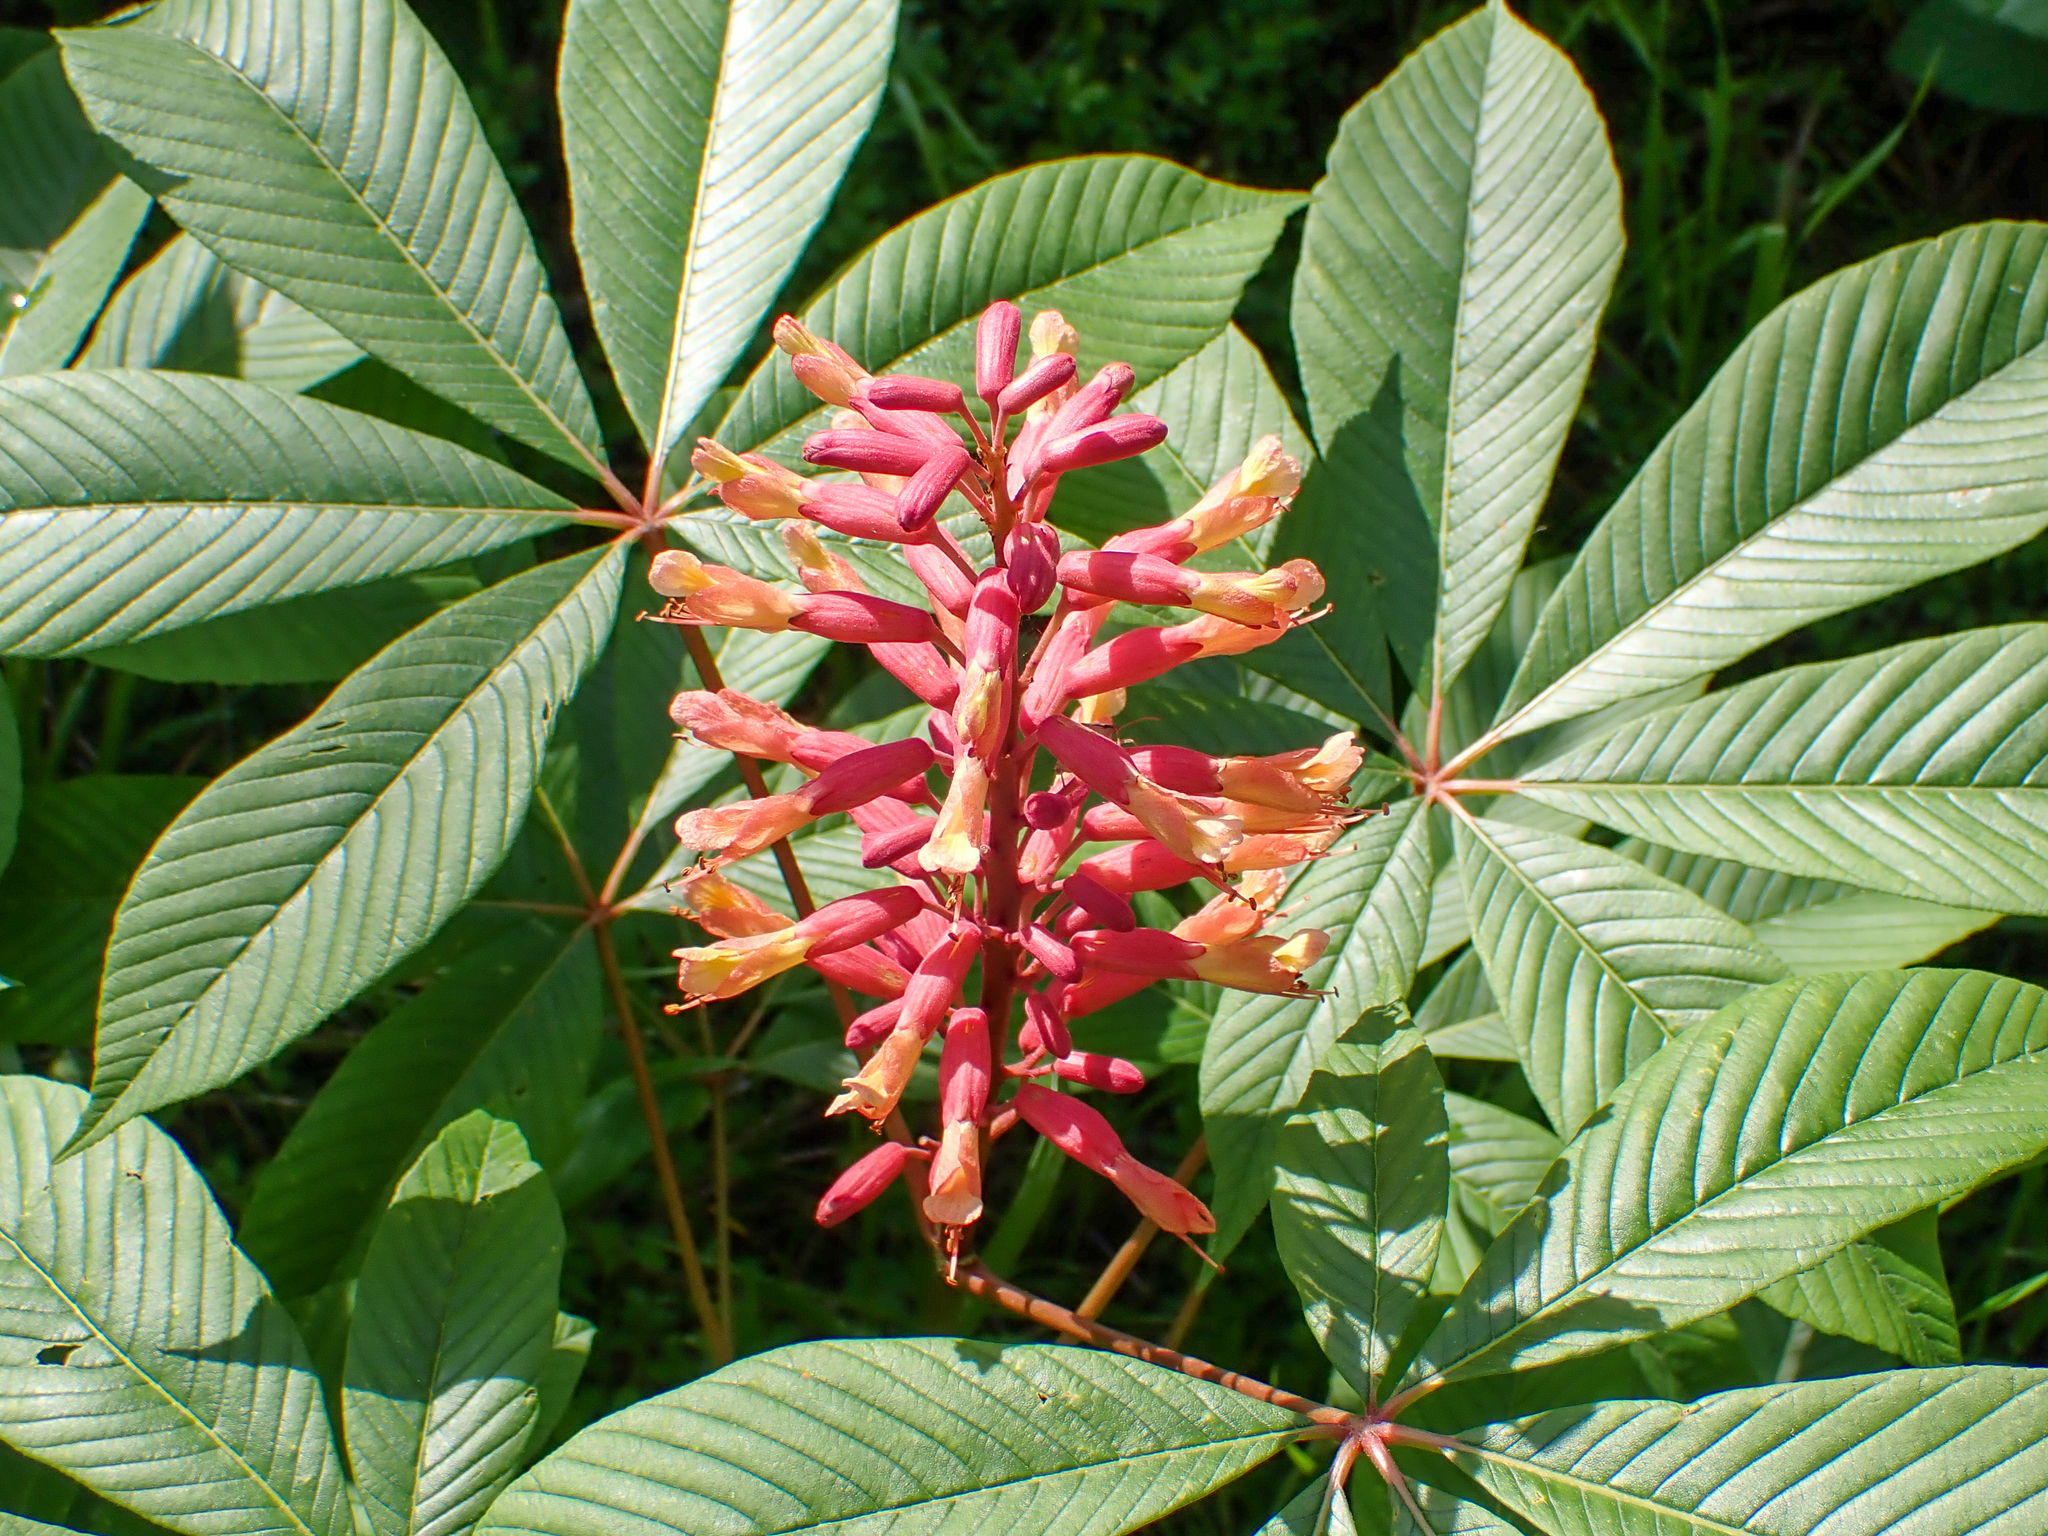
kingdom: Plantae
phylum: Tracheophyta
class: Magnoliopsida
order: Sapindales
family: Sapindaceae
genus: Aesculus
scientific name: Aesculus pavia
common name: Red buckeye
